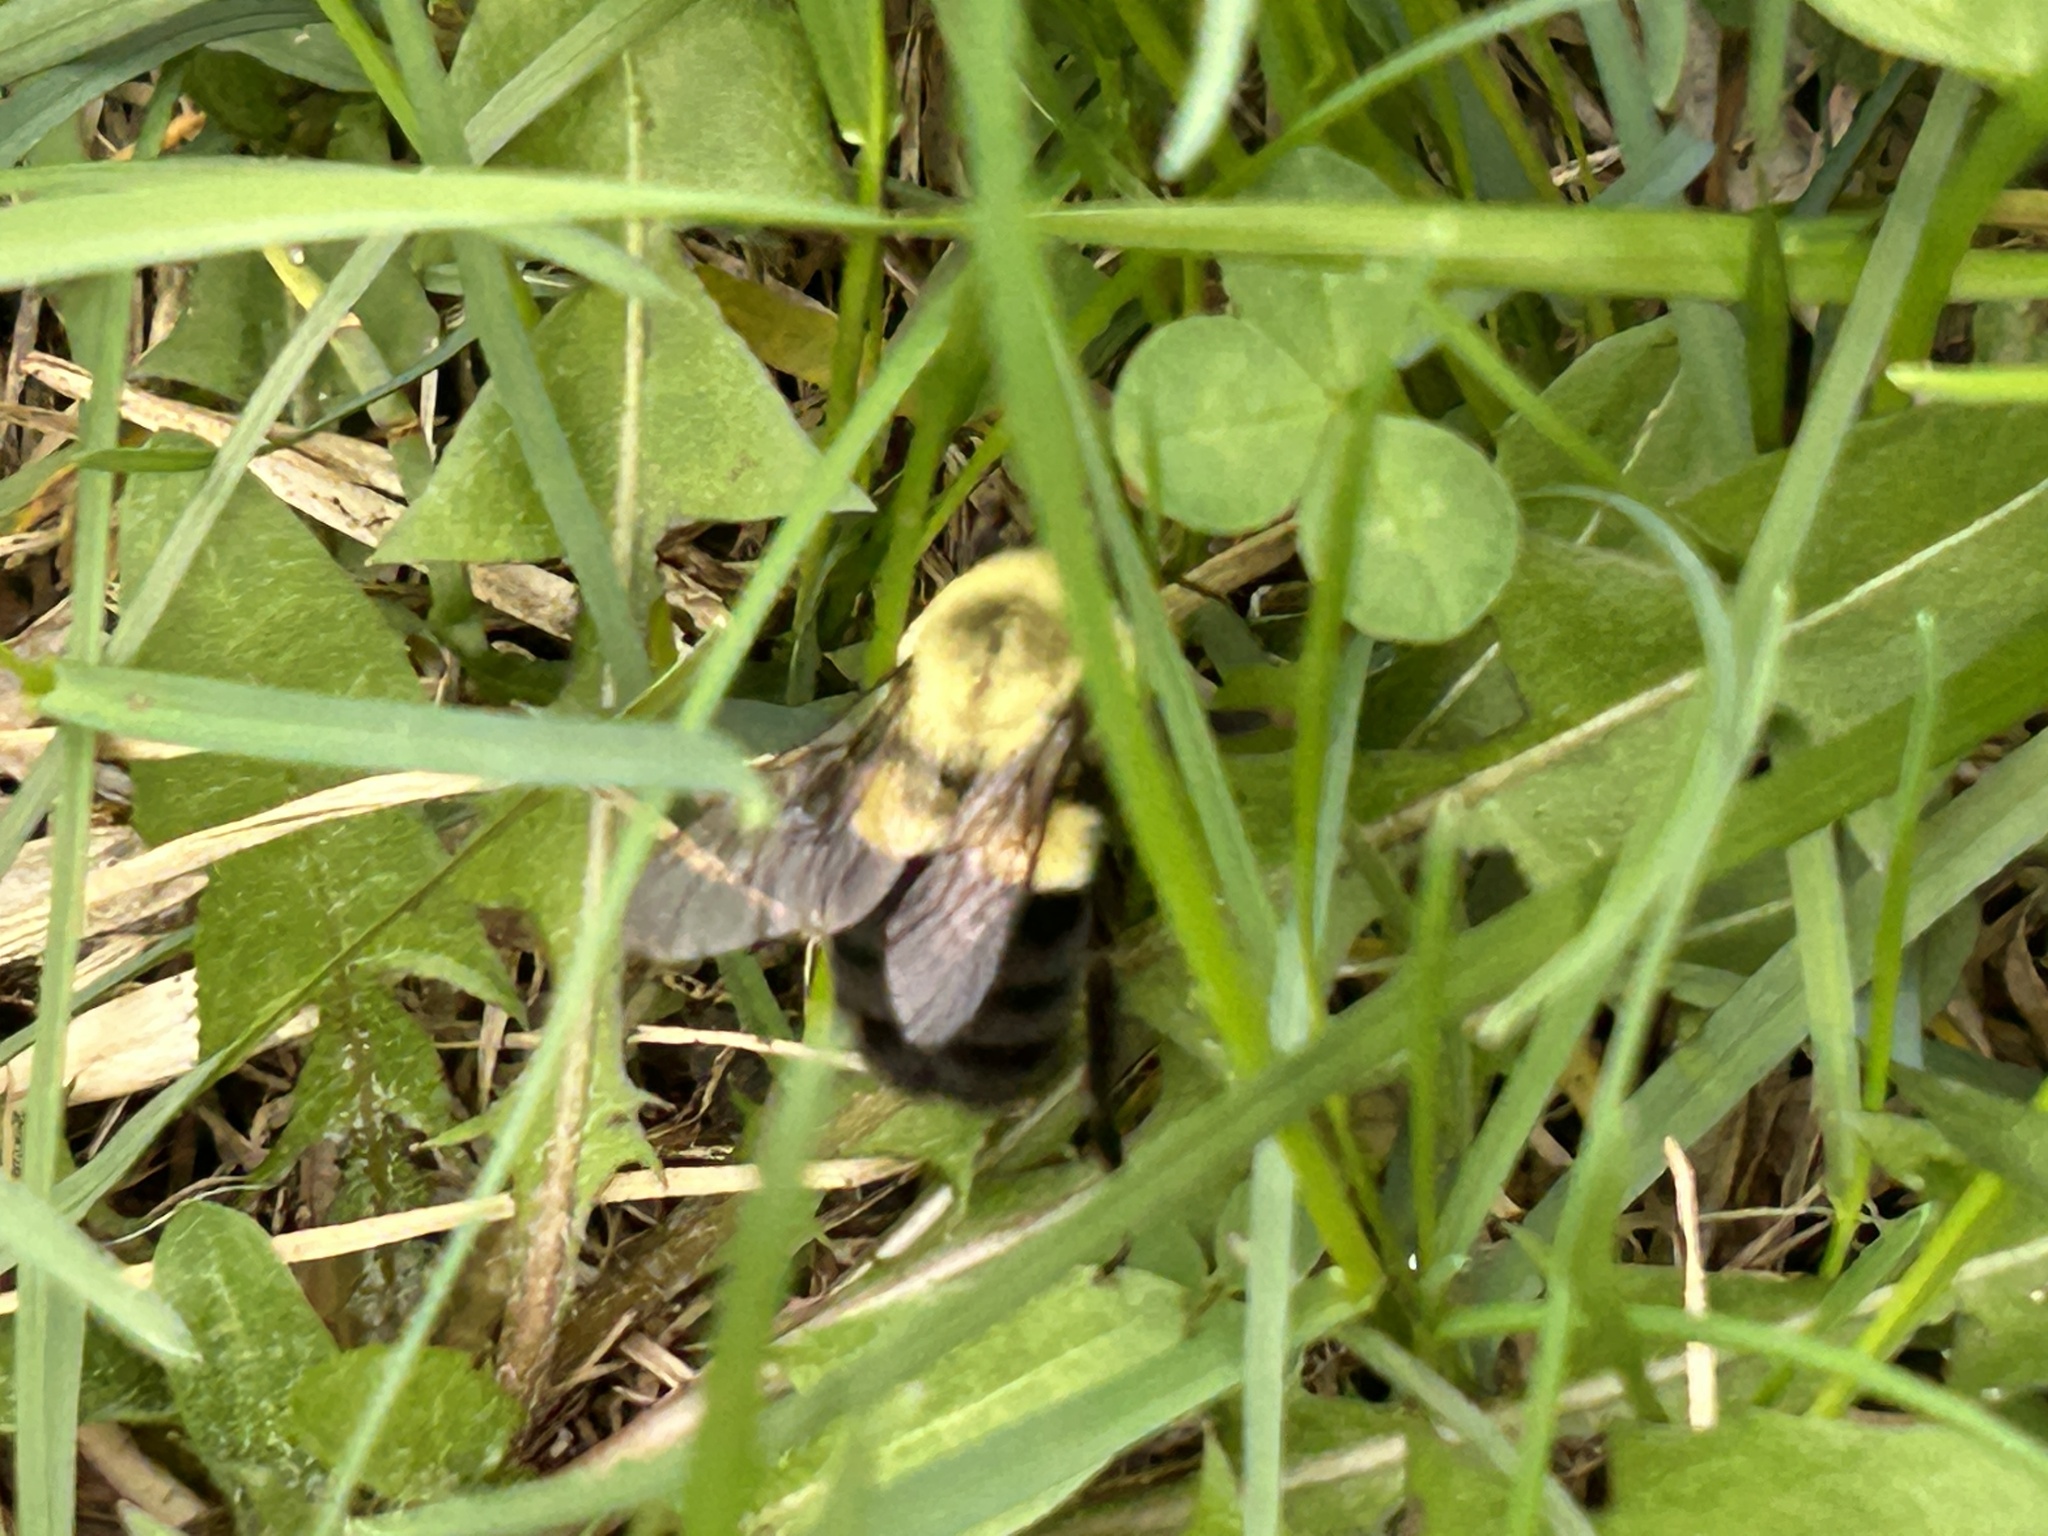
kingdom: Animalia
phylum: Arthropoda
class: Insecta
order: Hymenoptera
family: Apidae
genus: Bombus
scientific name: Bombus impatiens
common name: Common eastern bumble bee
